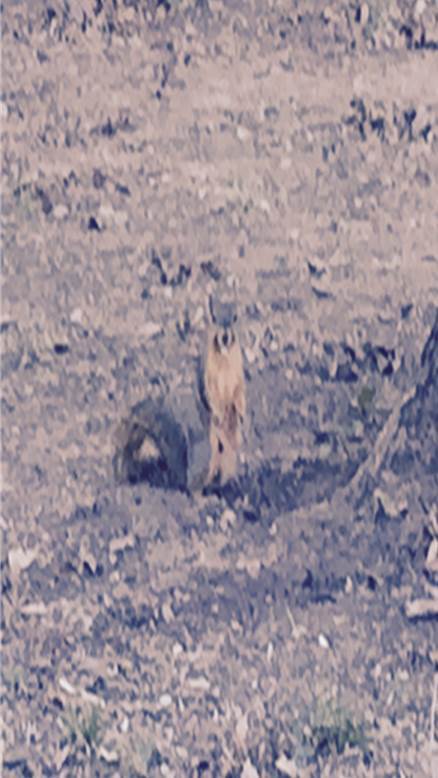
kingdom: Animalia
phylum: Chordata
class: Mammalia
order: Rodentia
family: Sciuridae
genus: Sciurus
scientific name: Sciurus niger
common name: Fox squirrel
